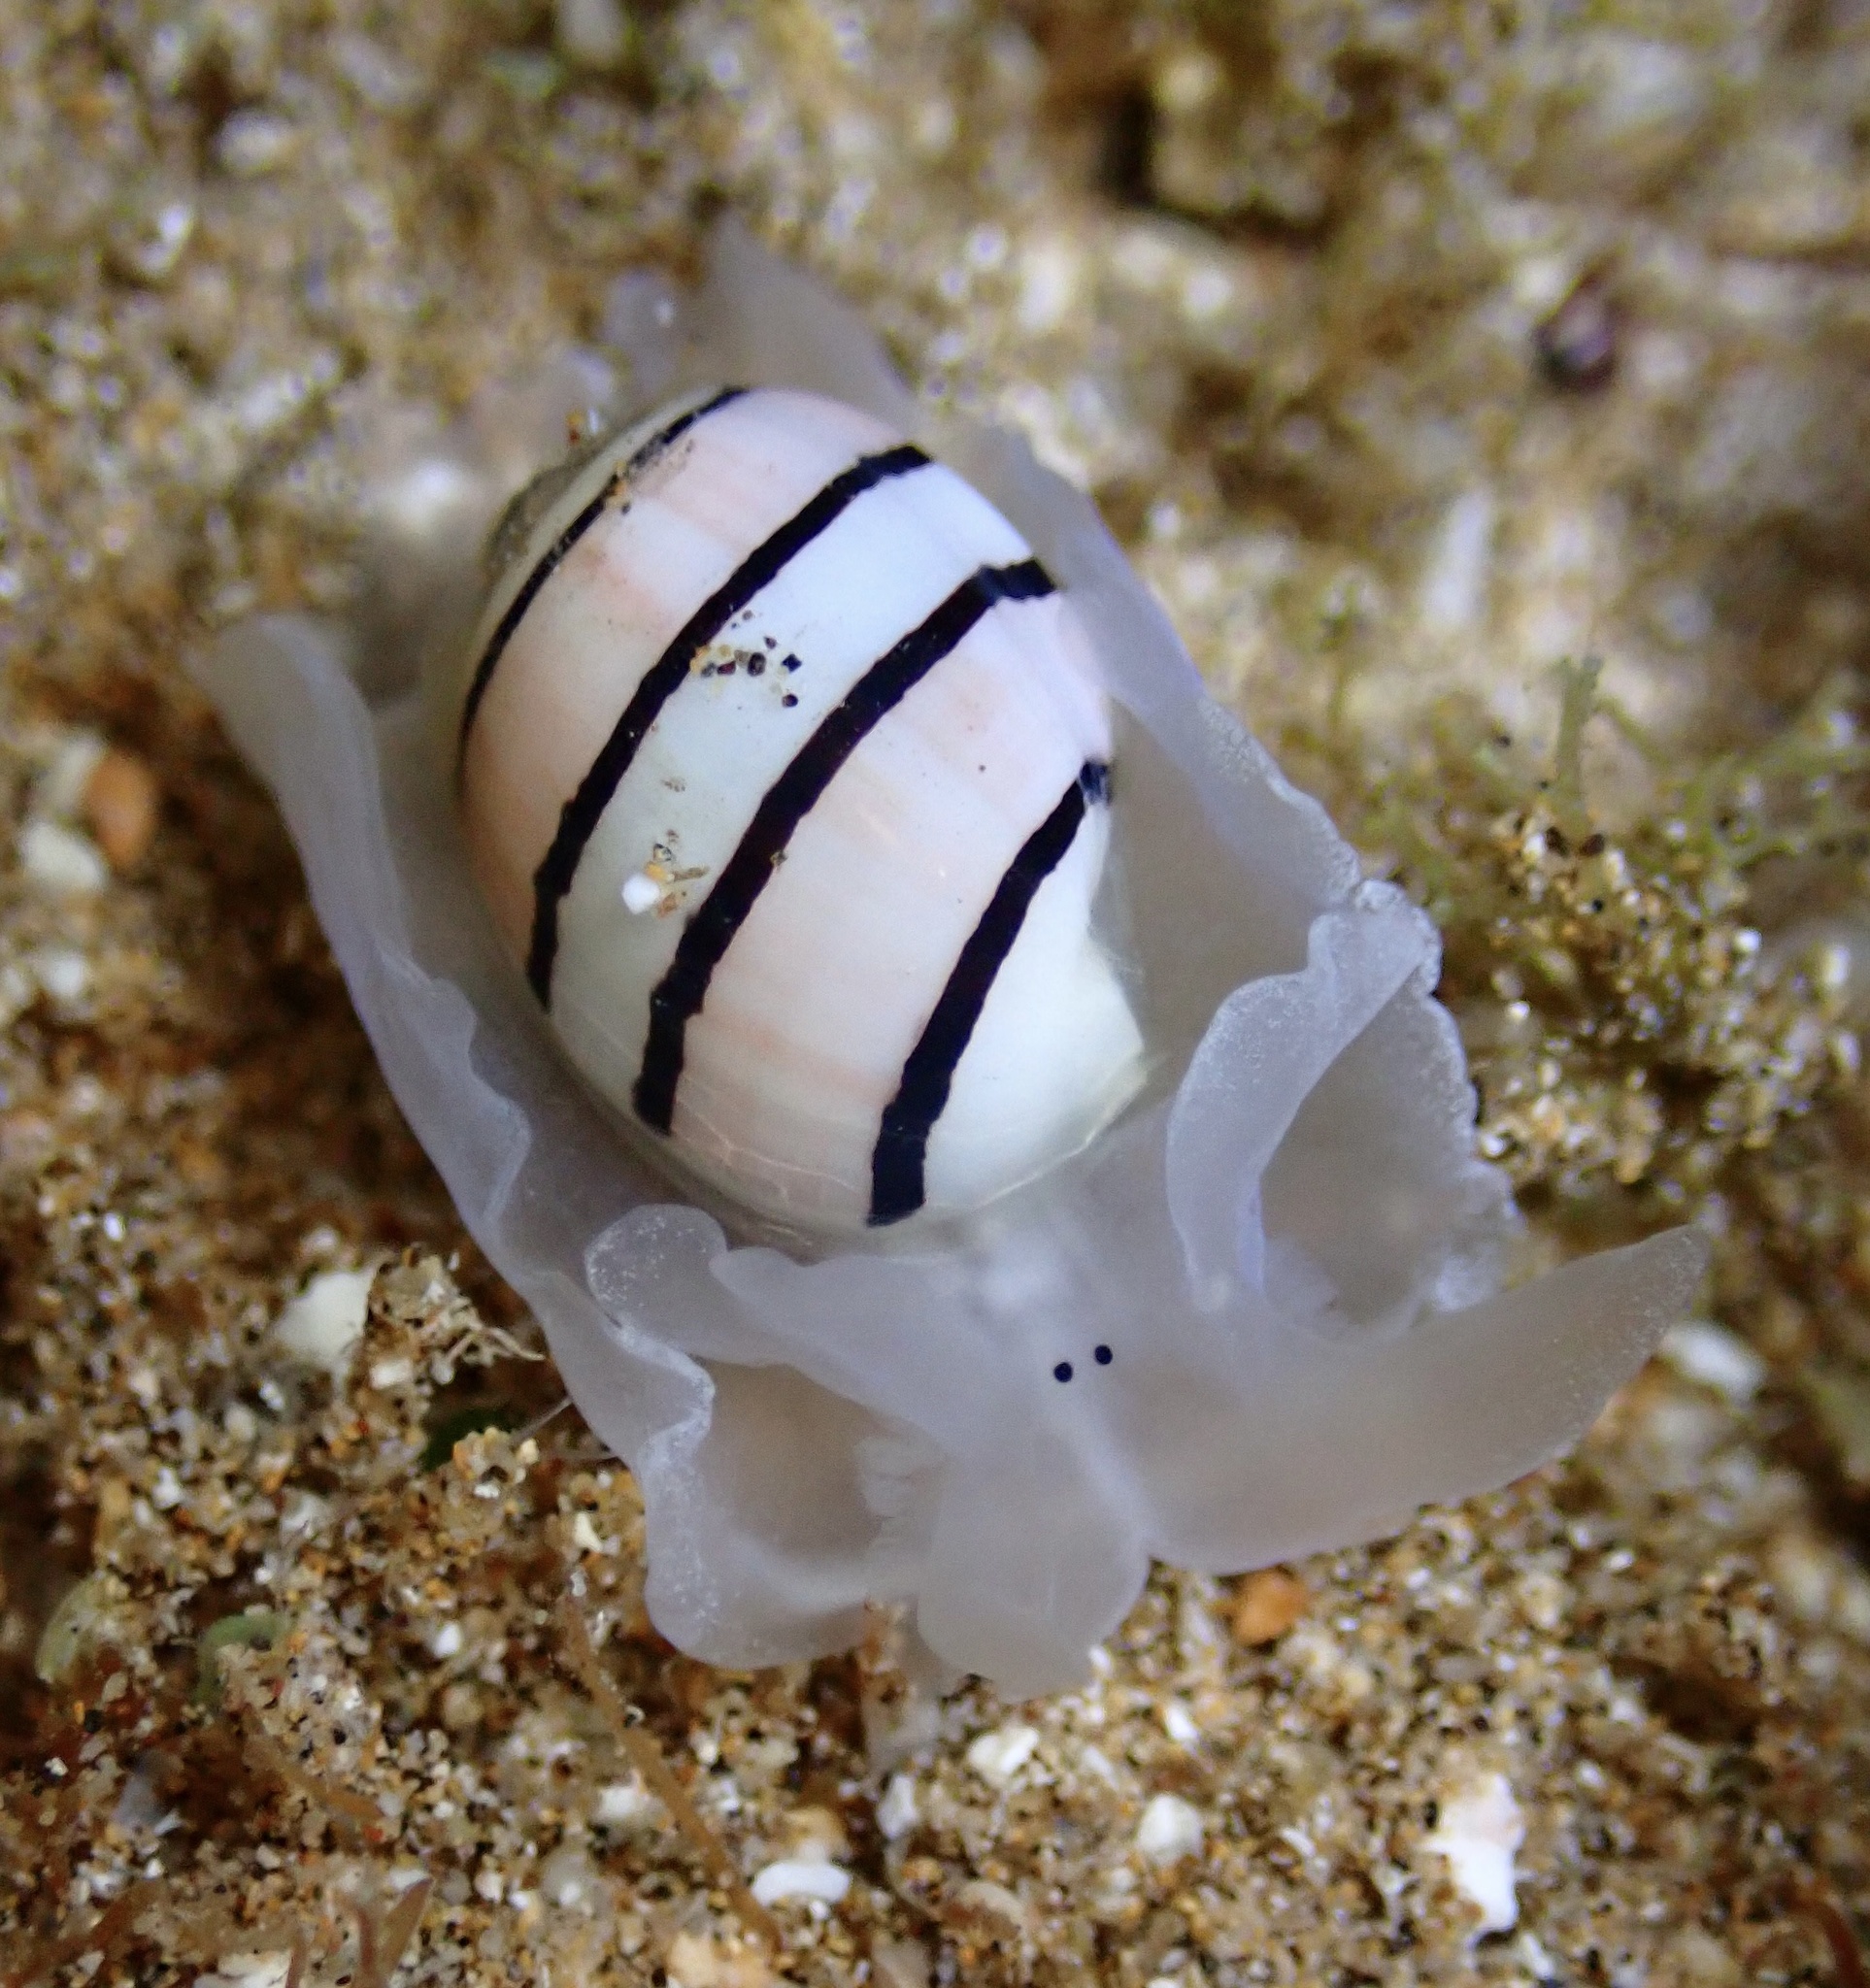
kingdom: Animalia
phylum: Mollusca
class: Gastropoda
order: Cephalaspidea
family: Aplustridae
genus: Aplustrum
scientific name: Aplustrum amplustre
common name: Royal paperbubble
